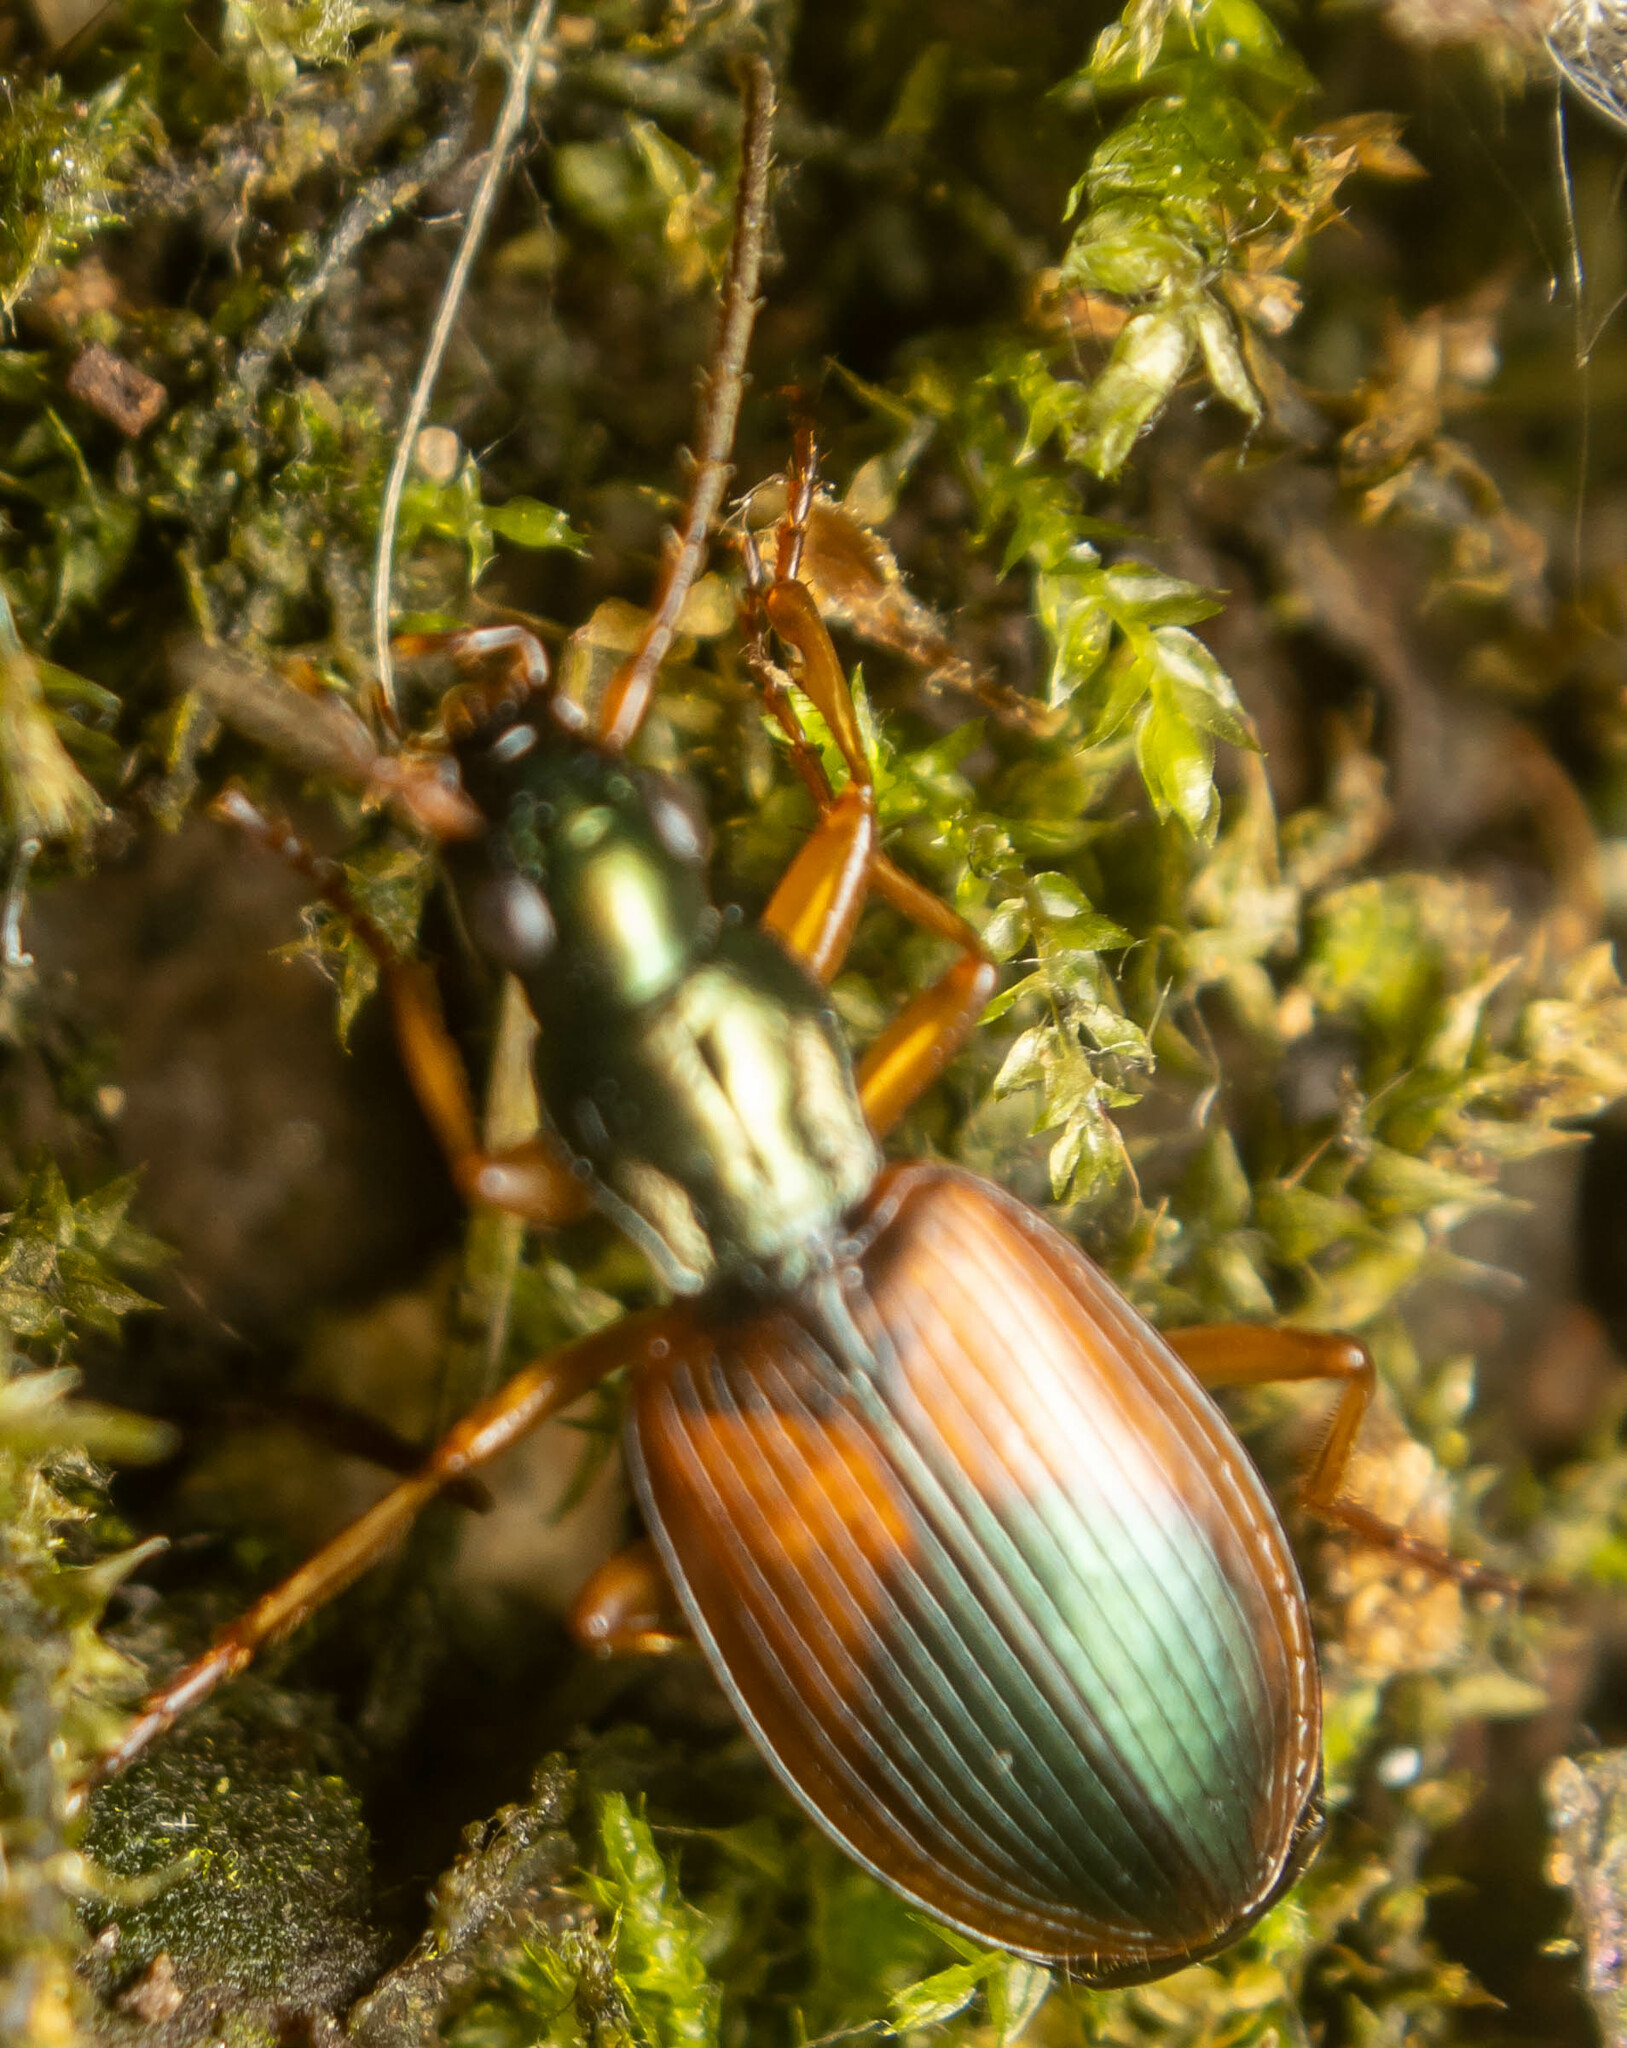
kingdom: Animalia
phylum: Arthropoda
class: Insecta
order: Coleoptera
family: Carabidae
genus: Anchomenus
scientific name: Anchomenus dorsalis
